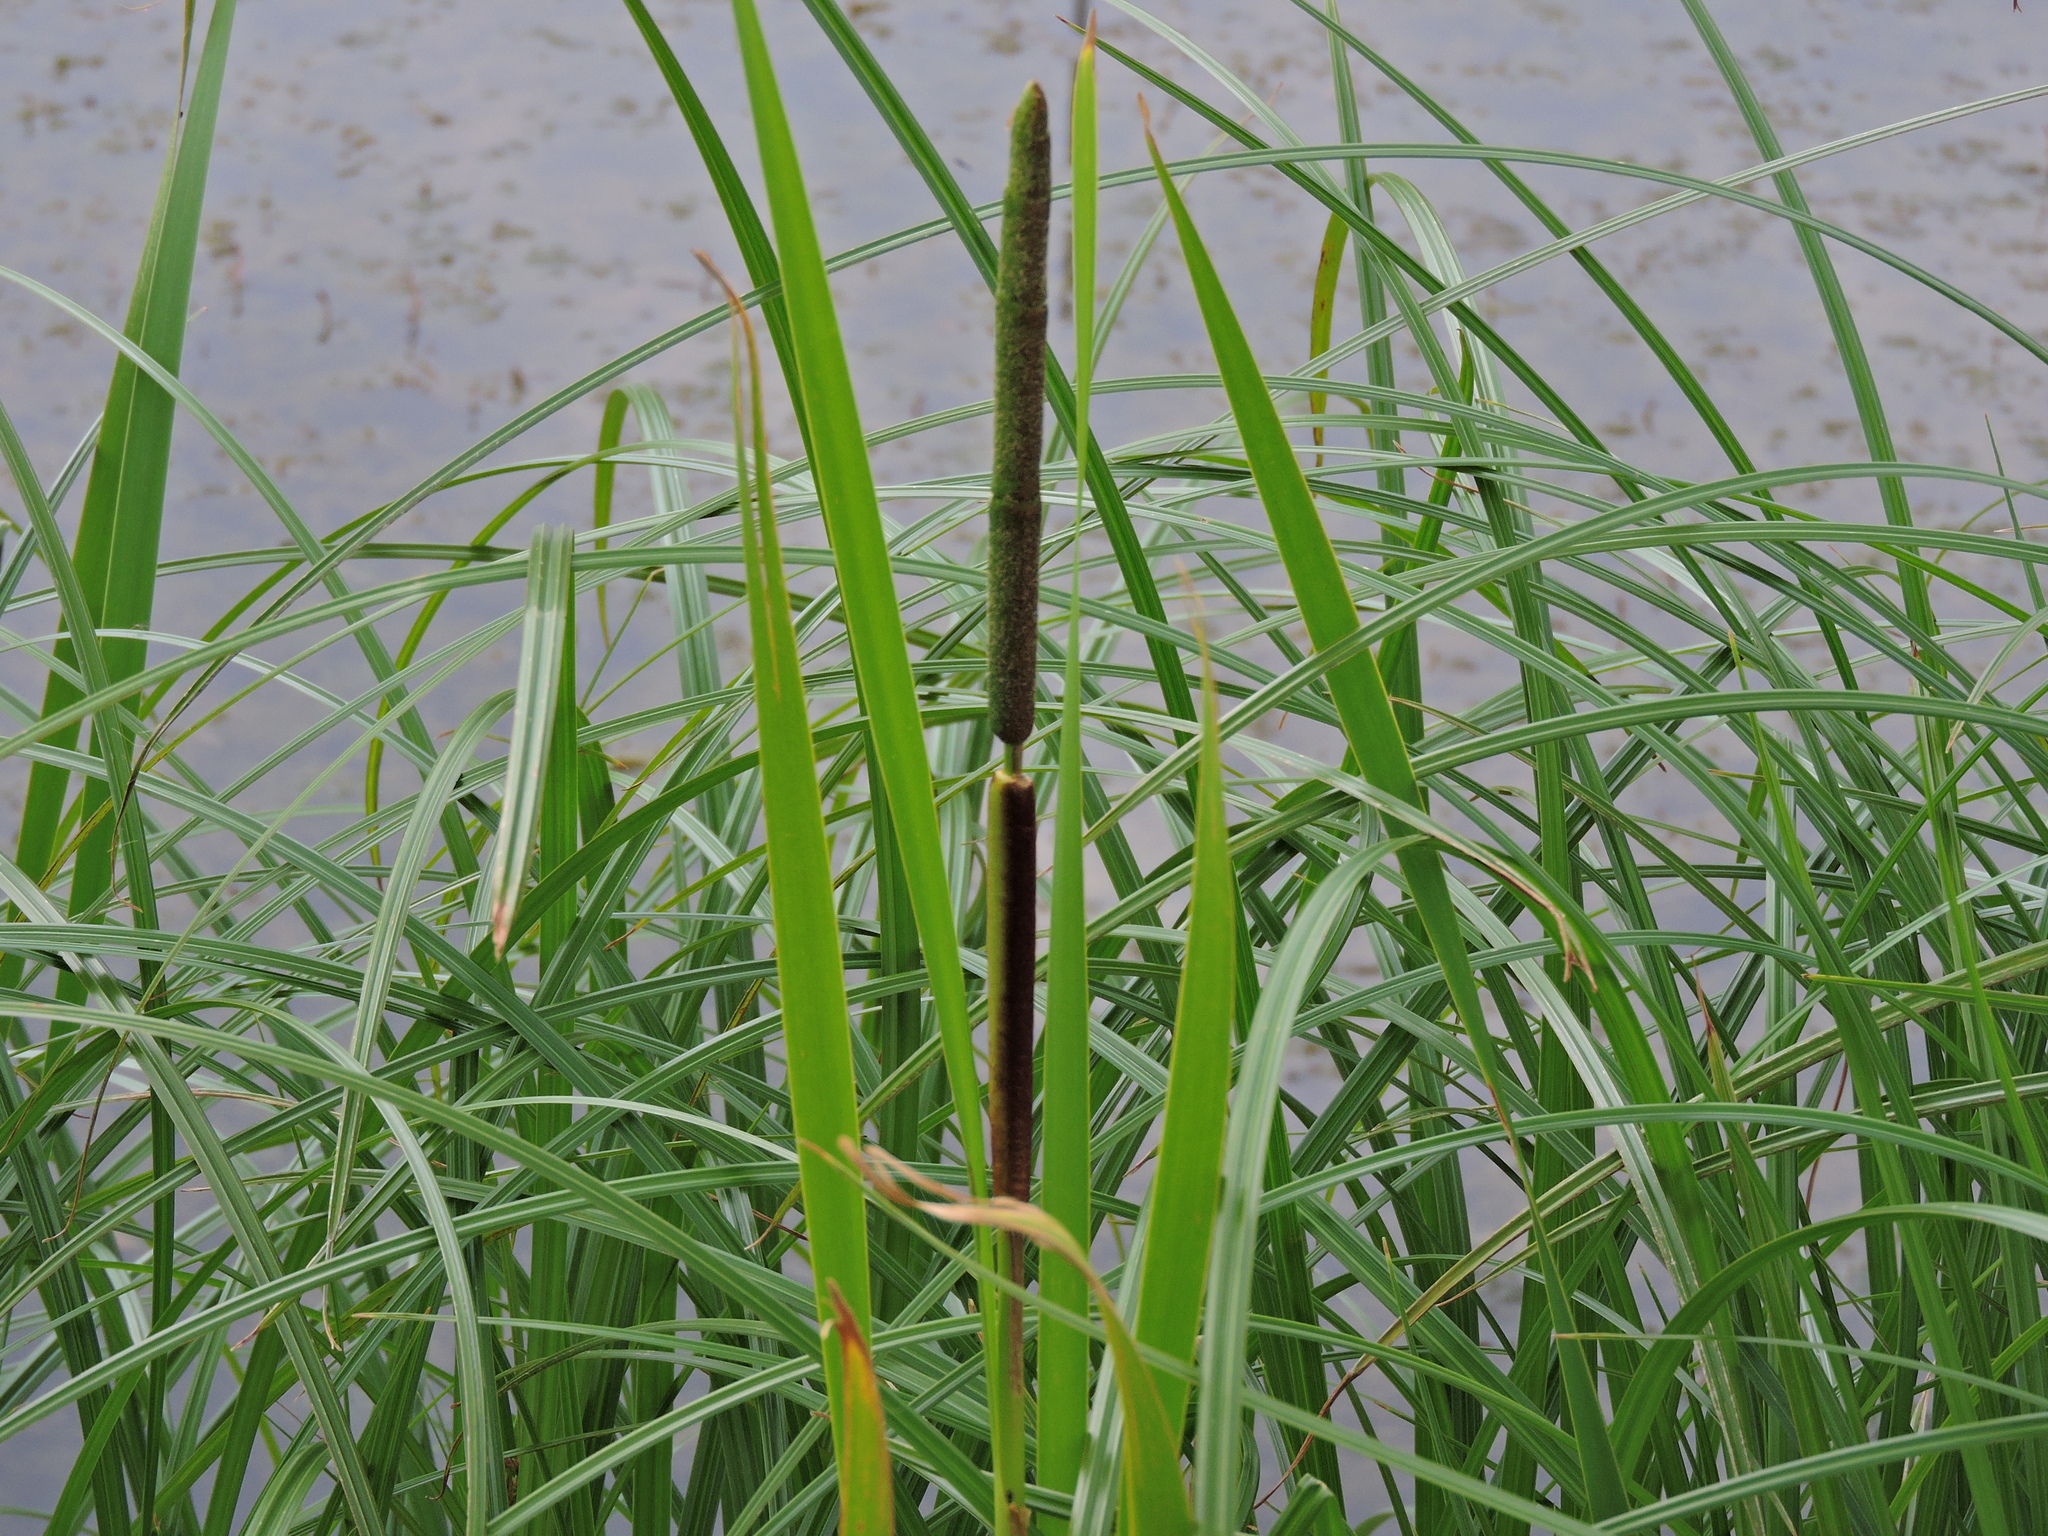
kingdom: Plantae
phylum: Tracheophyta
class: Liliopsida
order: Poales
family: Typhaceae
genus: Typha
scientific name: Typha angustifolia
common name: Lesser bulrush
